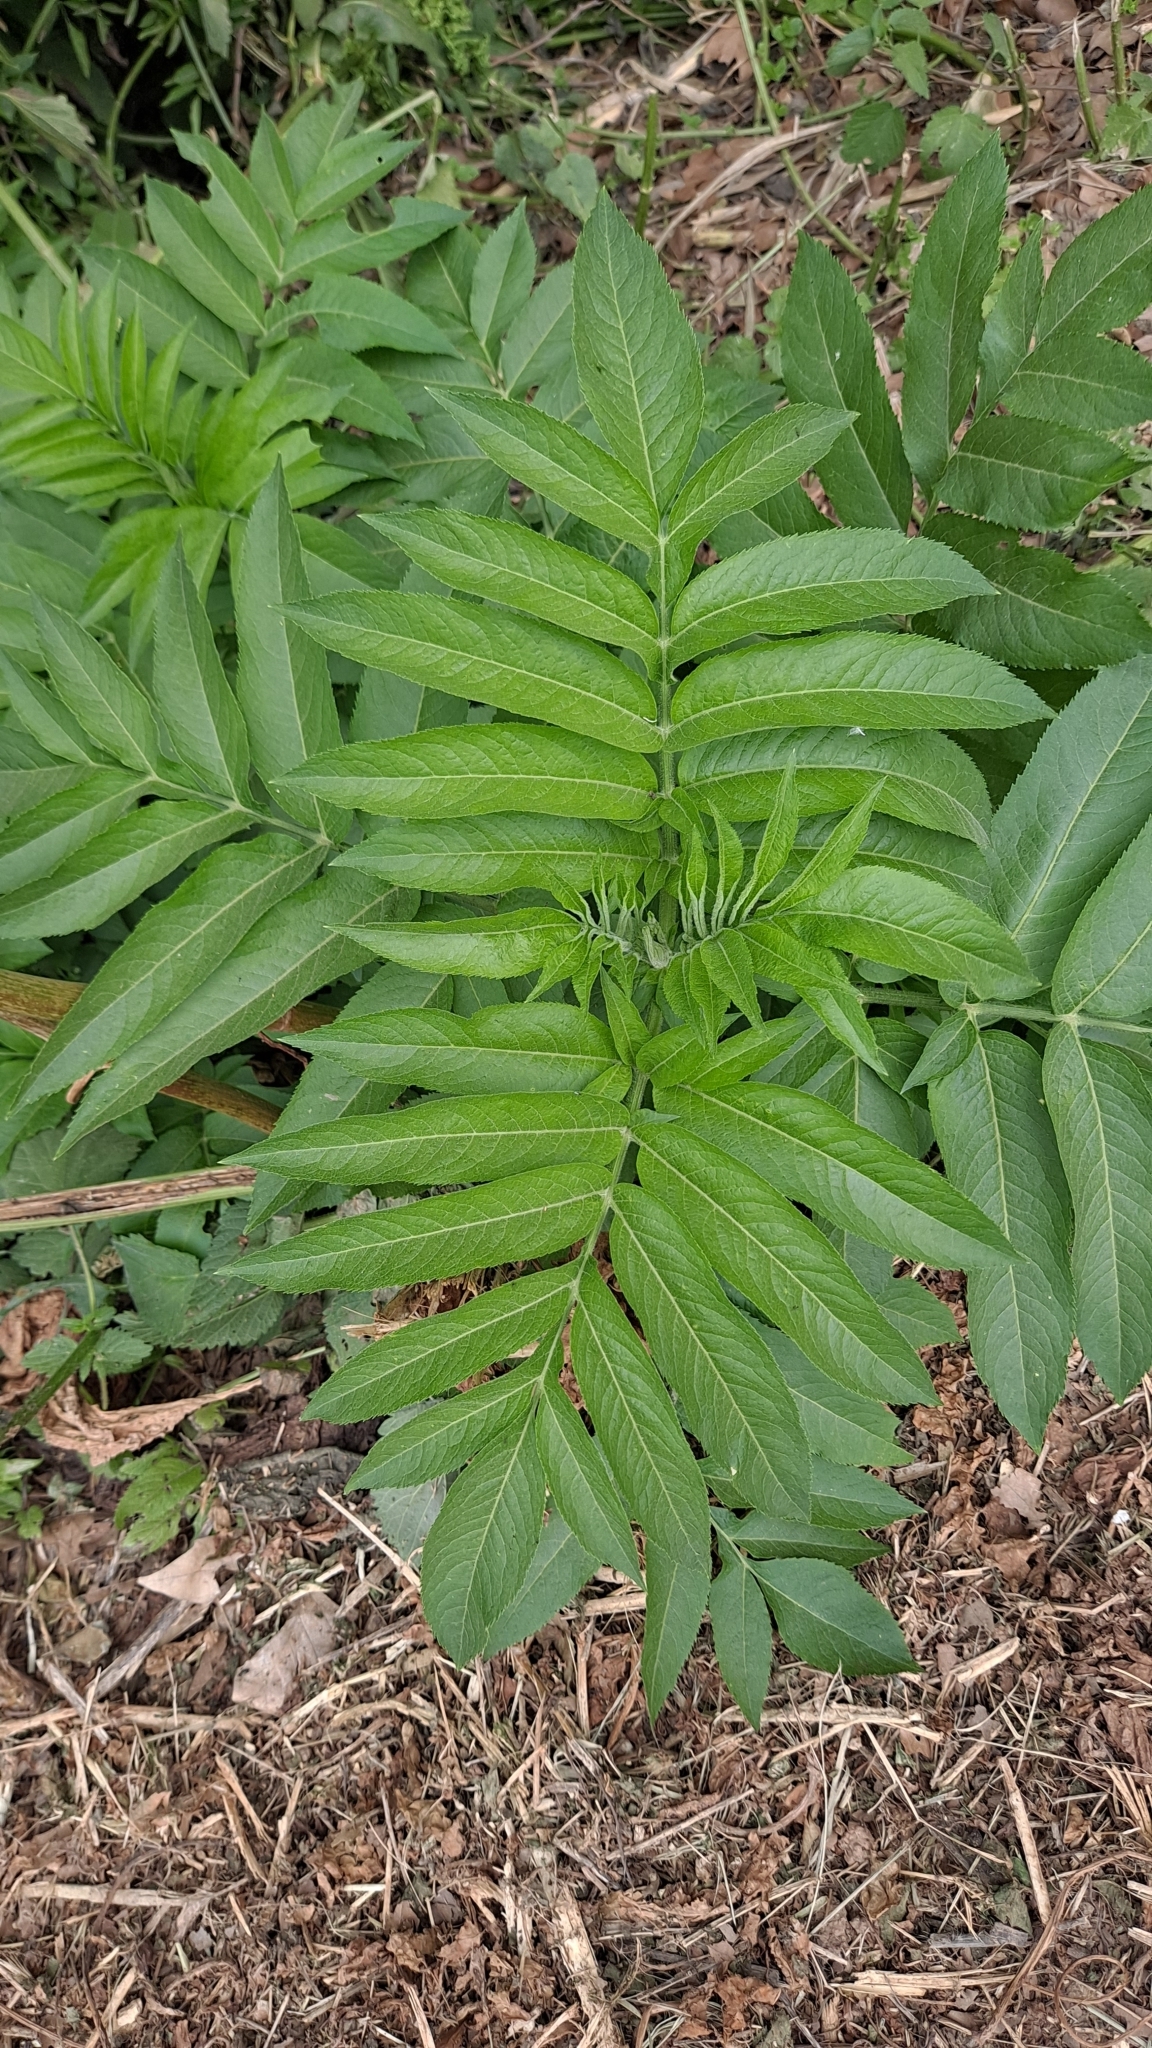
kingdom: Plantae
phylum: Tracheophyta
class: Magnoliopsida
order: Dipsacales
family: Viburnaceae
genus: Sambucus
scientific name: Sambucus ebulus
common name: Dwarf elder
